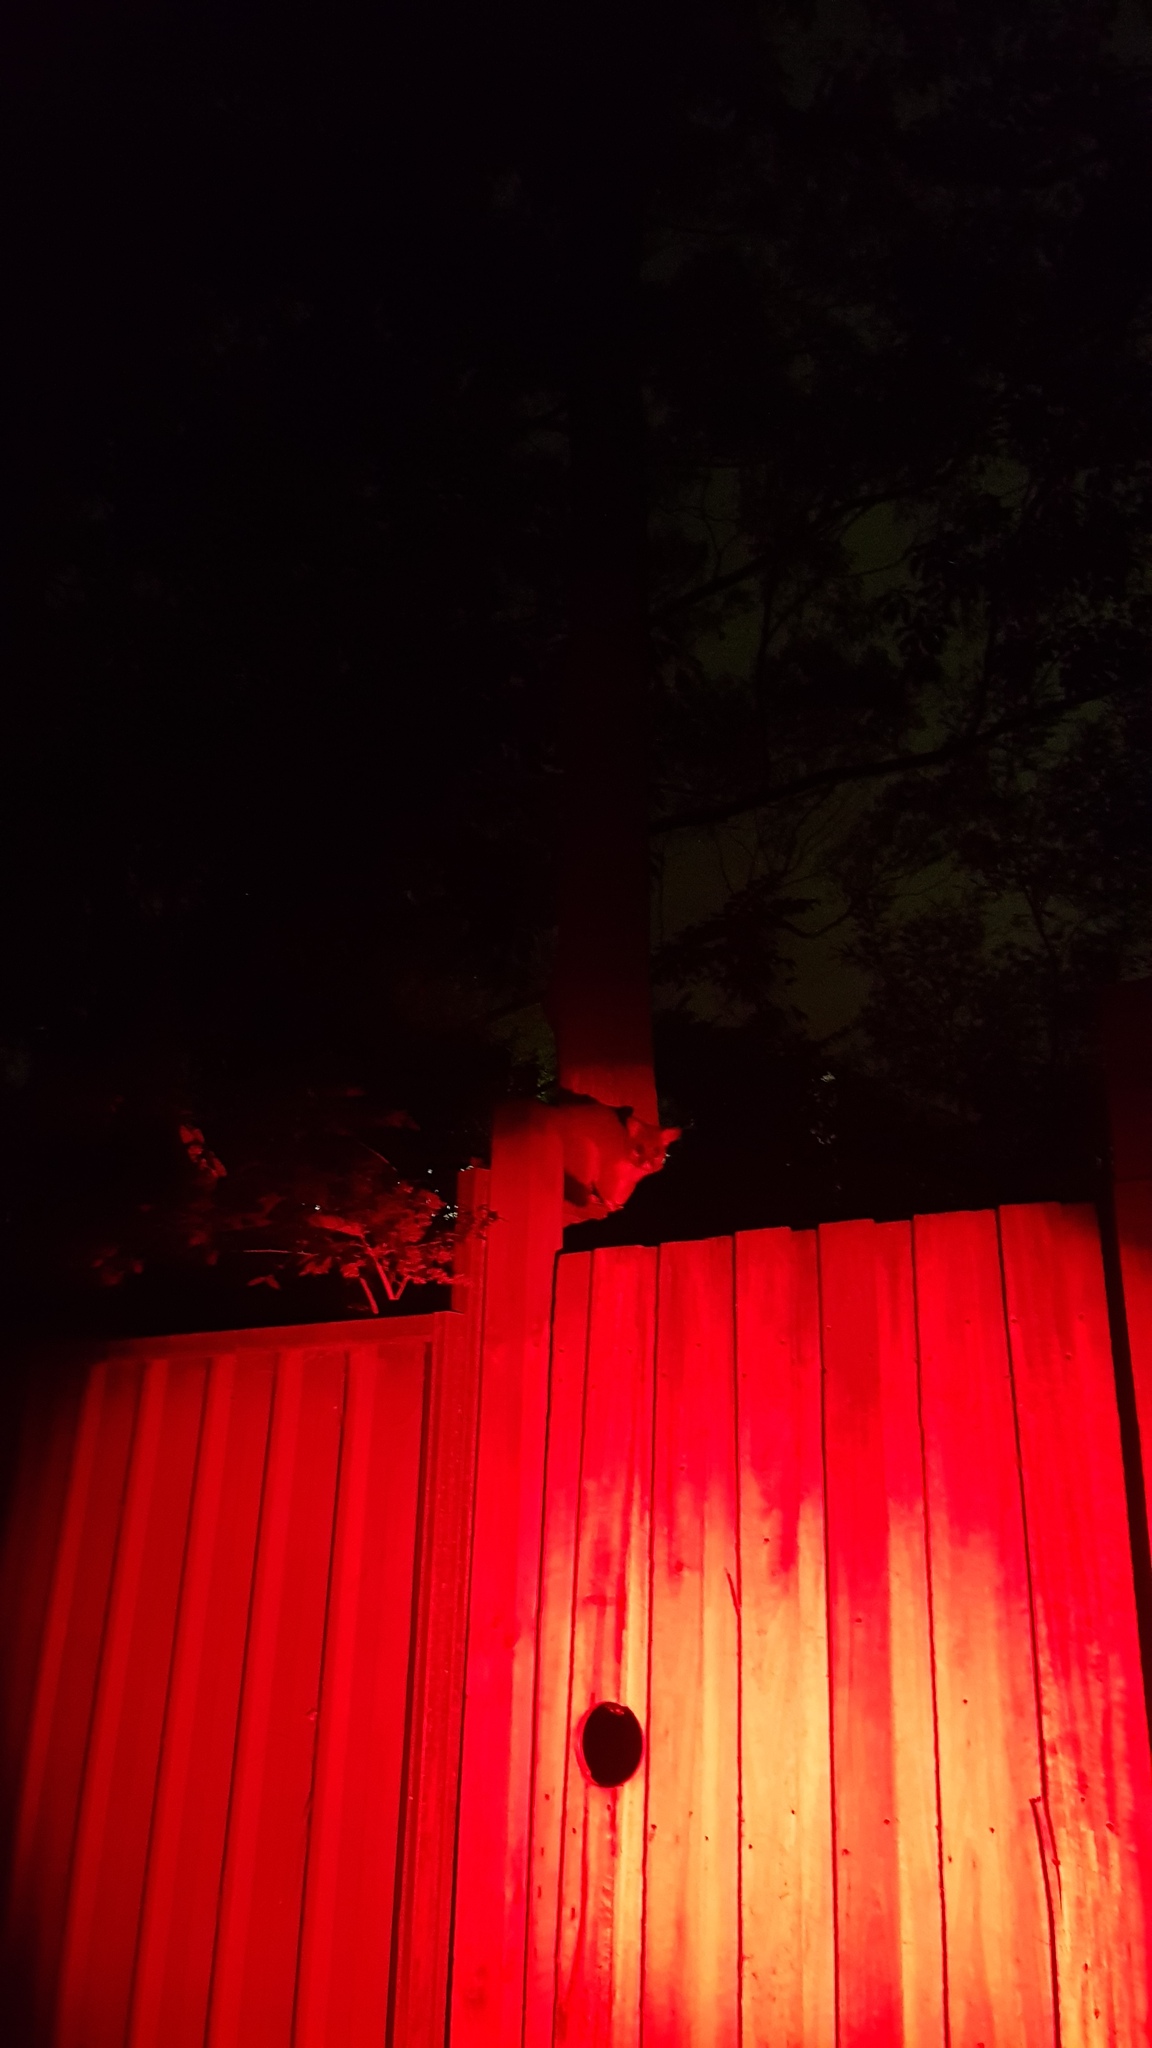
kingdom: Animalia
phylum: Chordata
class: Mammalia
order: Diprotodontia
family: Phalangeridae
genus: Trichosurus
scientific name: Trichosurus vulpecula
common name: Common brushtail
